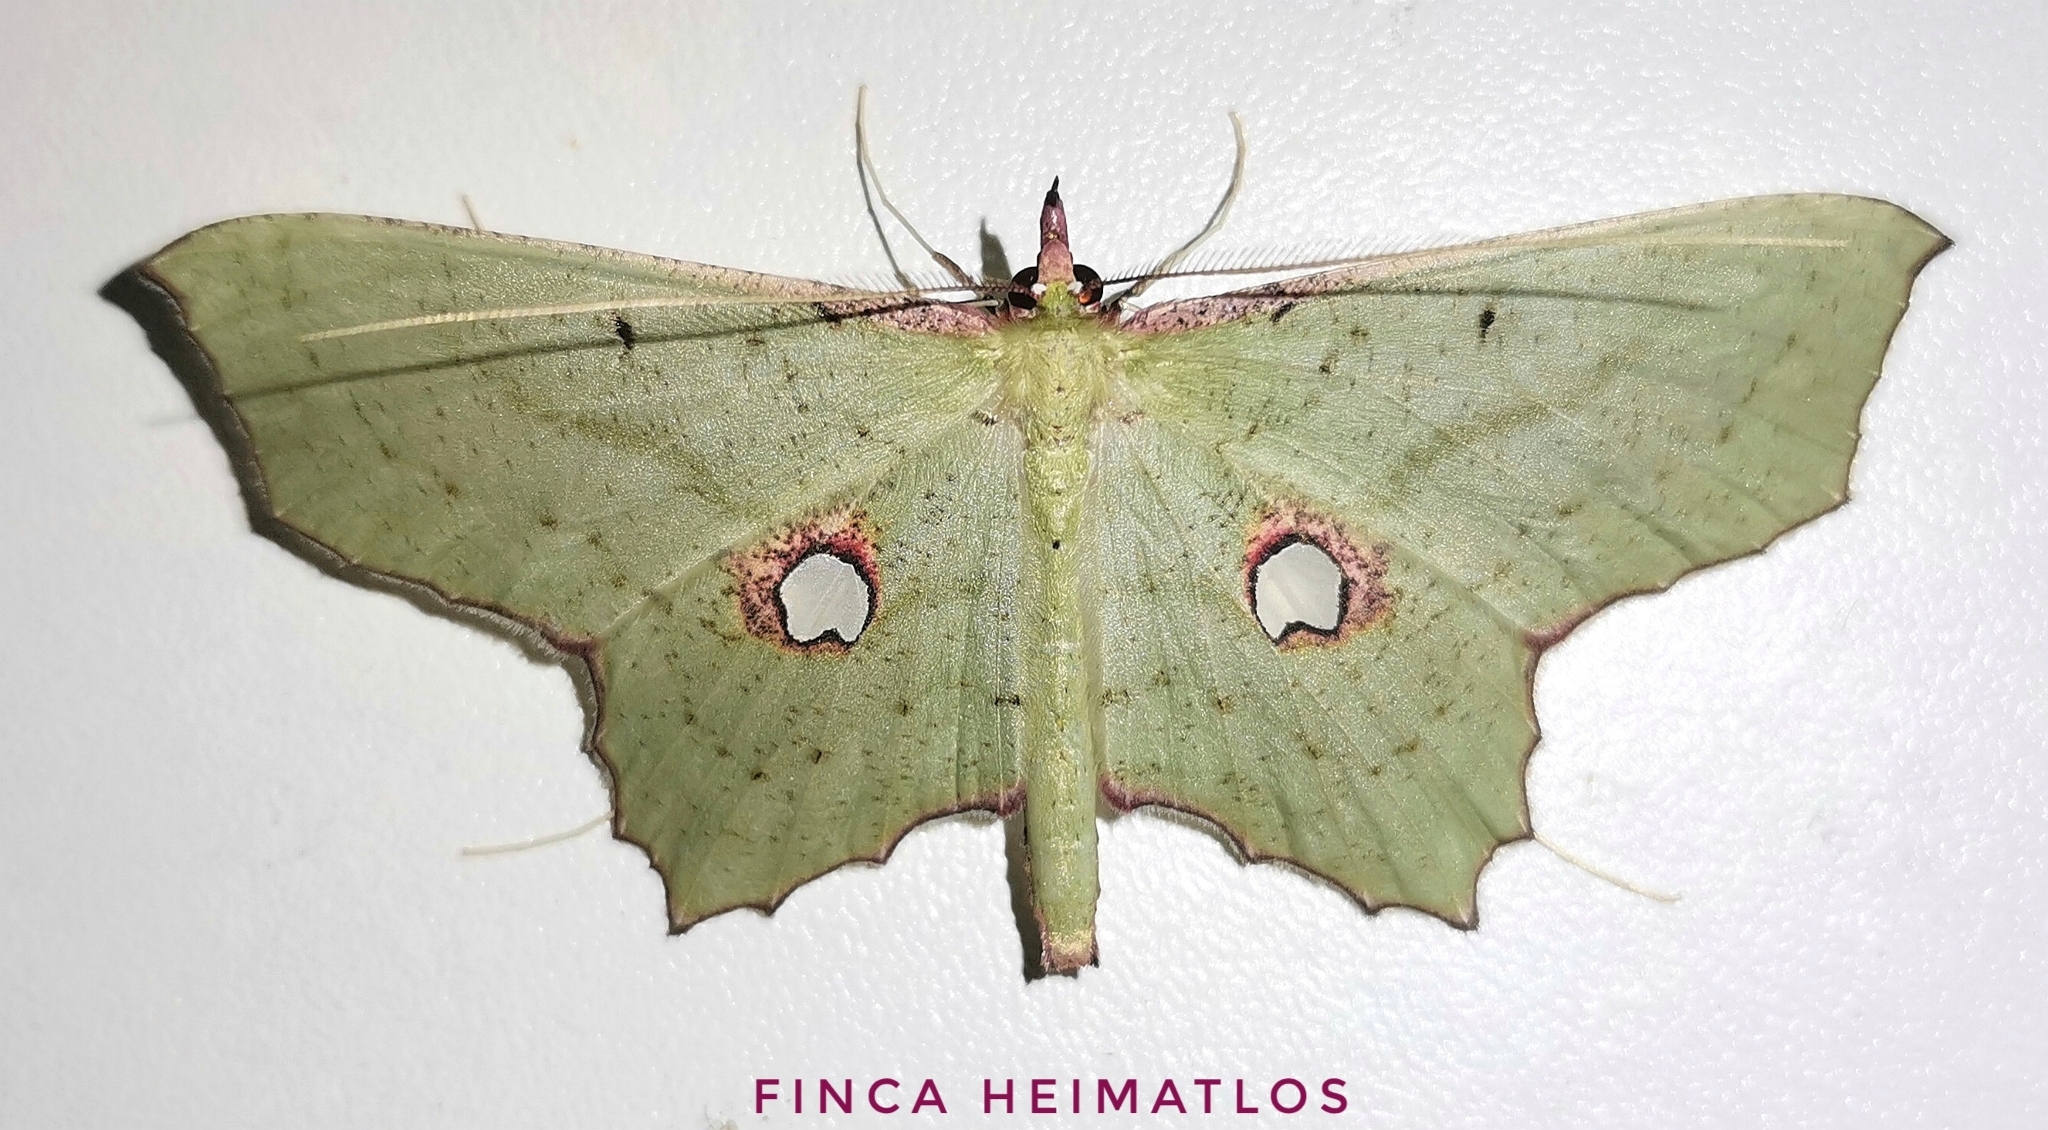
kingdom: Animalia
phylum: Arthropoda
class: Insecta
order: Lepidoptera
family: Geometridae
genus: Macrotes
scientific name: Macrotes cordovaria
